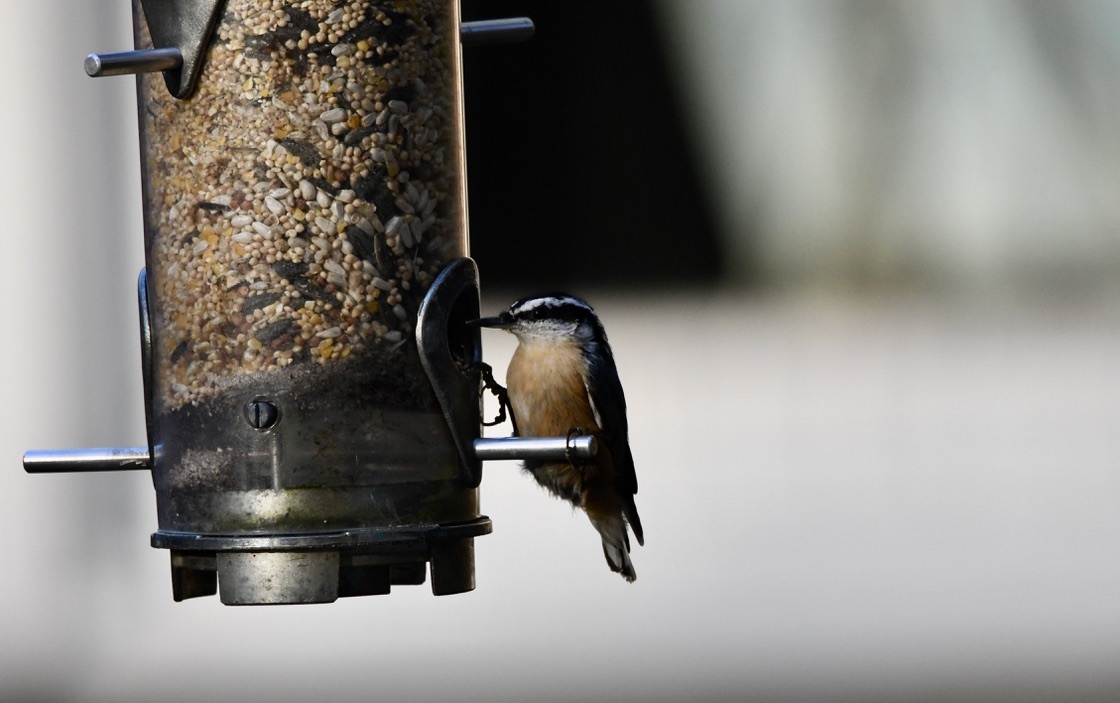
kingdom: Animalia
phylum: Chordata
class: Aves
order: Passeriformes
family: Sittidae
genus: Sitta
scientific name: Sitta canadensis
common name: Red-breasted nuthatch
